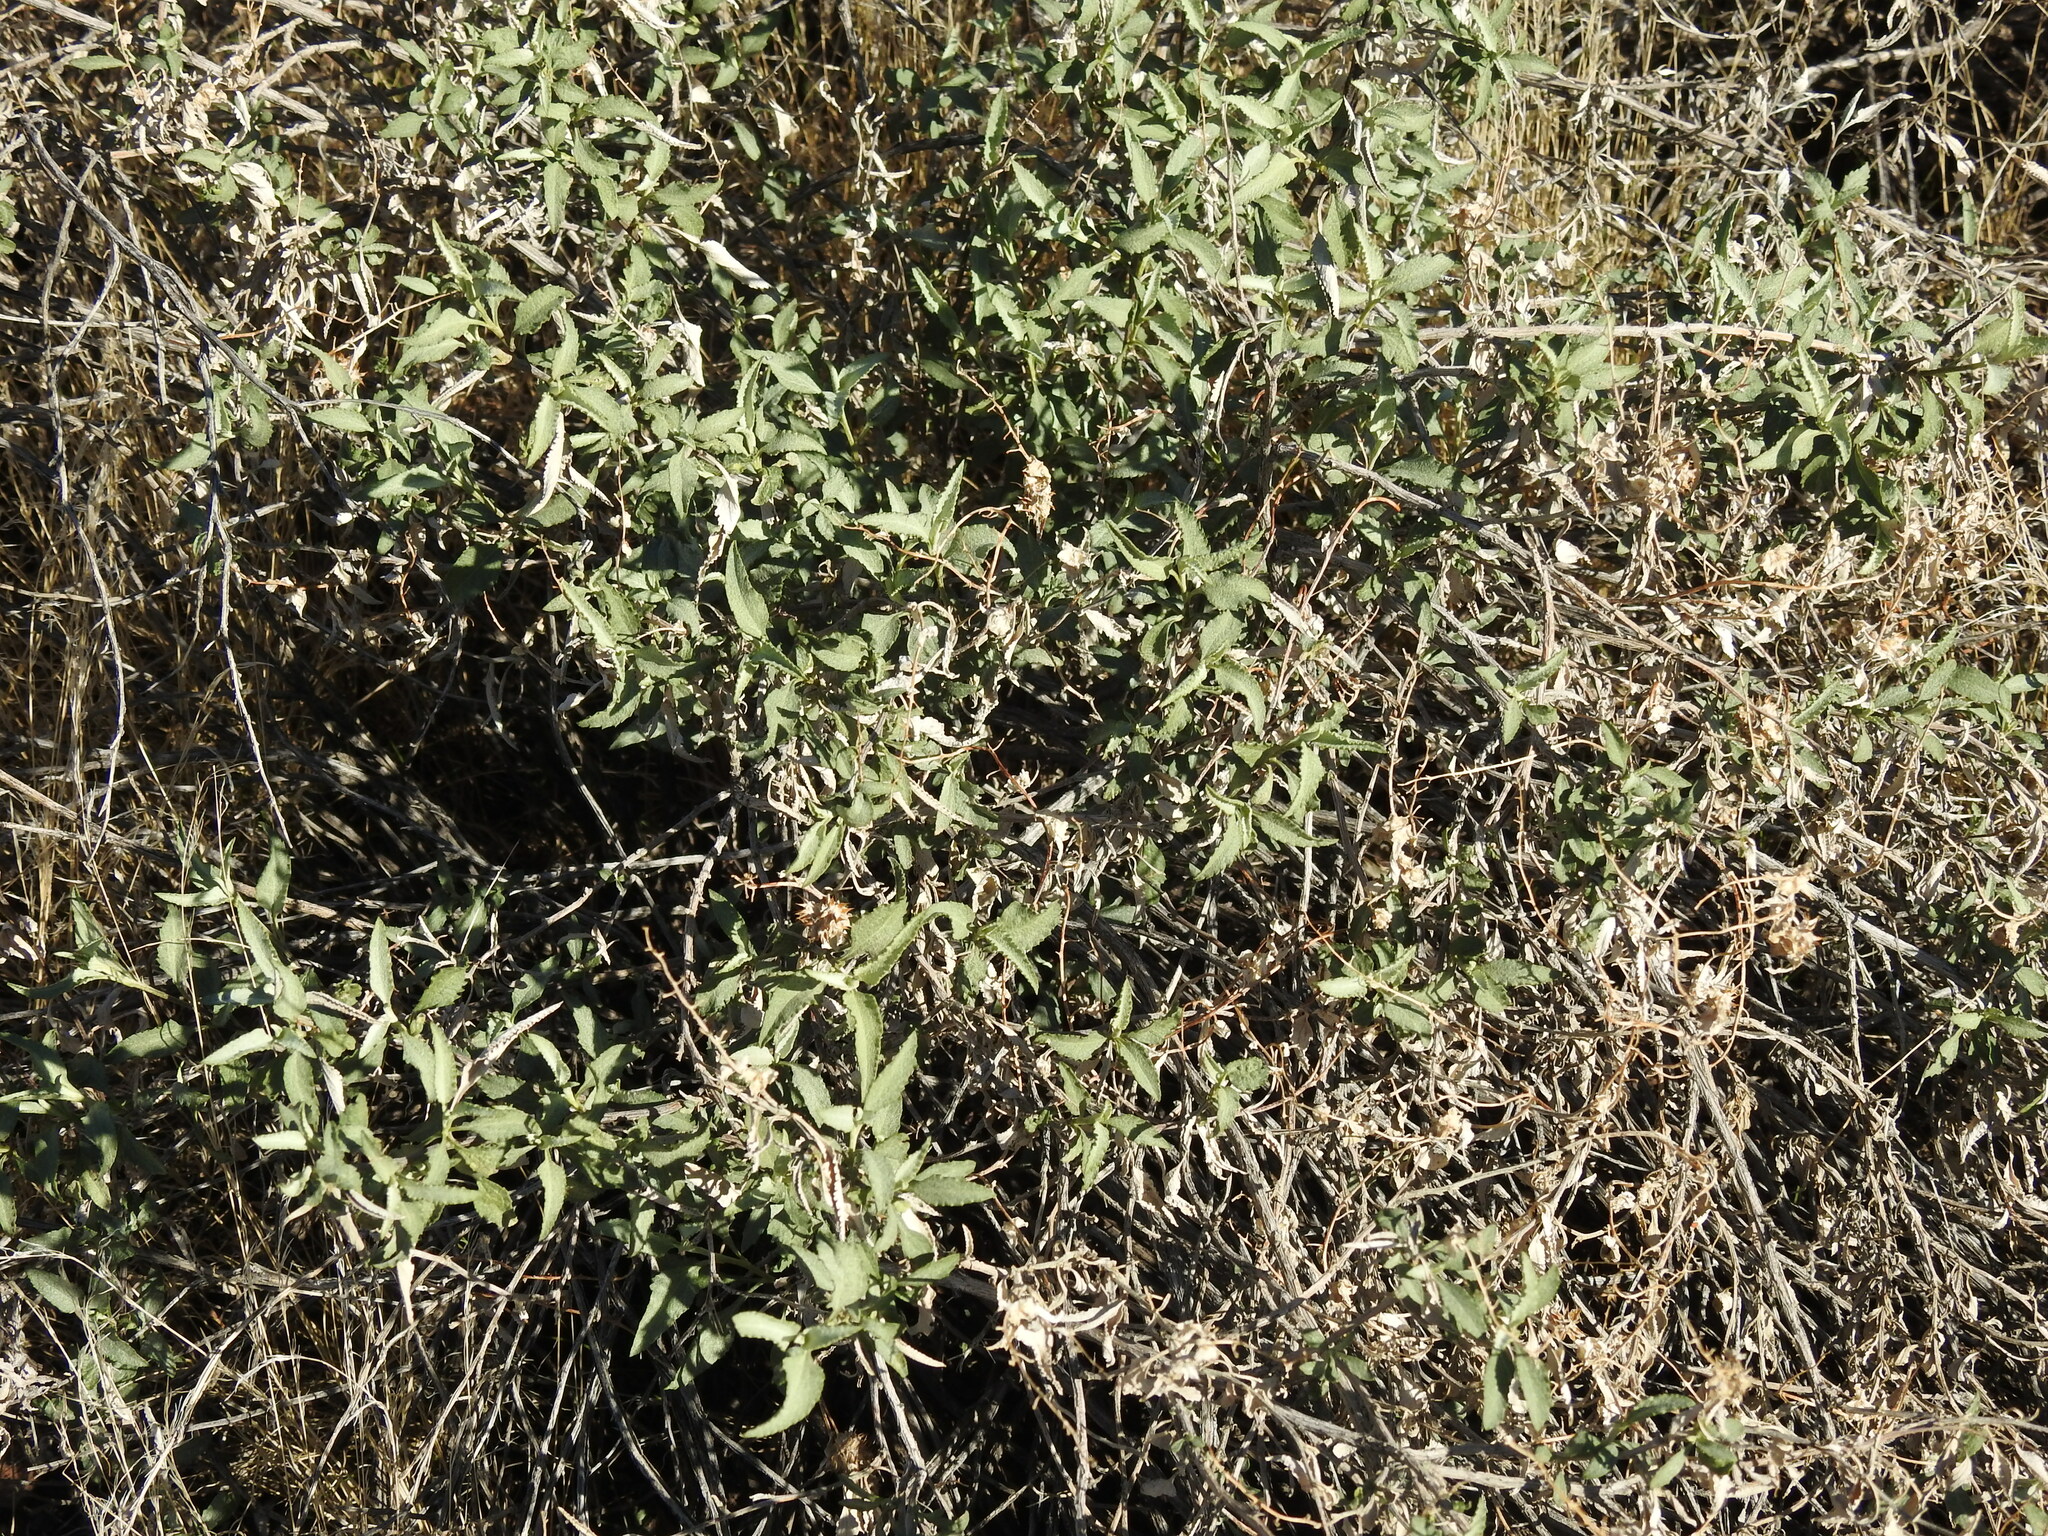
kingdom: Plantae
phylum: Tracheophyta
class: Magnoliopsida
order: Asterales
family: Asteraceae
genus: Ambrosia
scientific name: Ambrosia deltoidea
